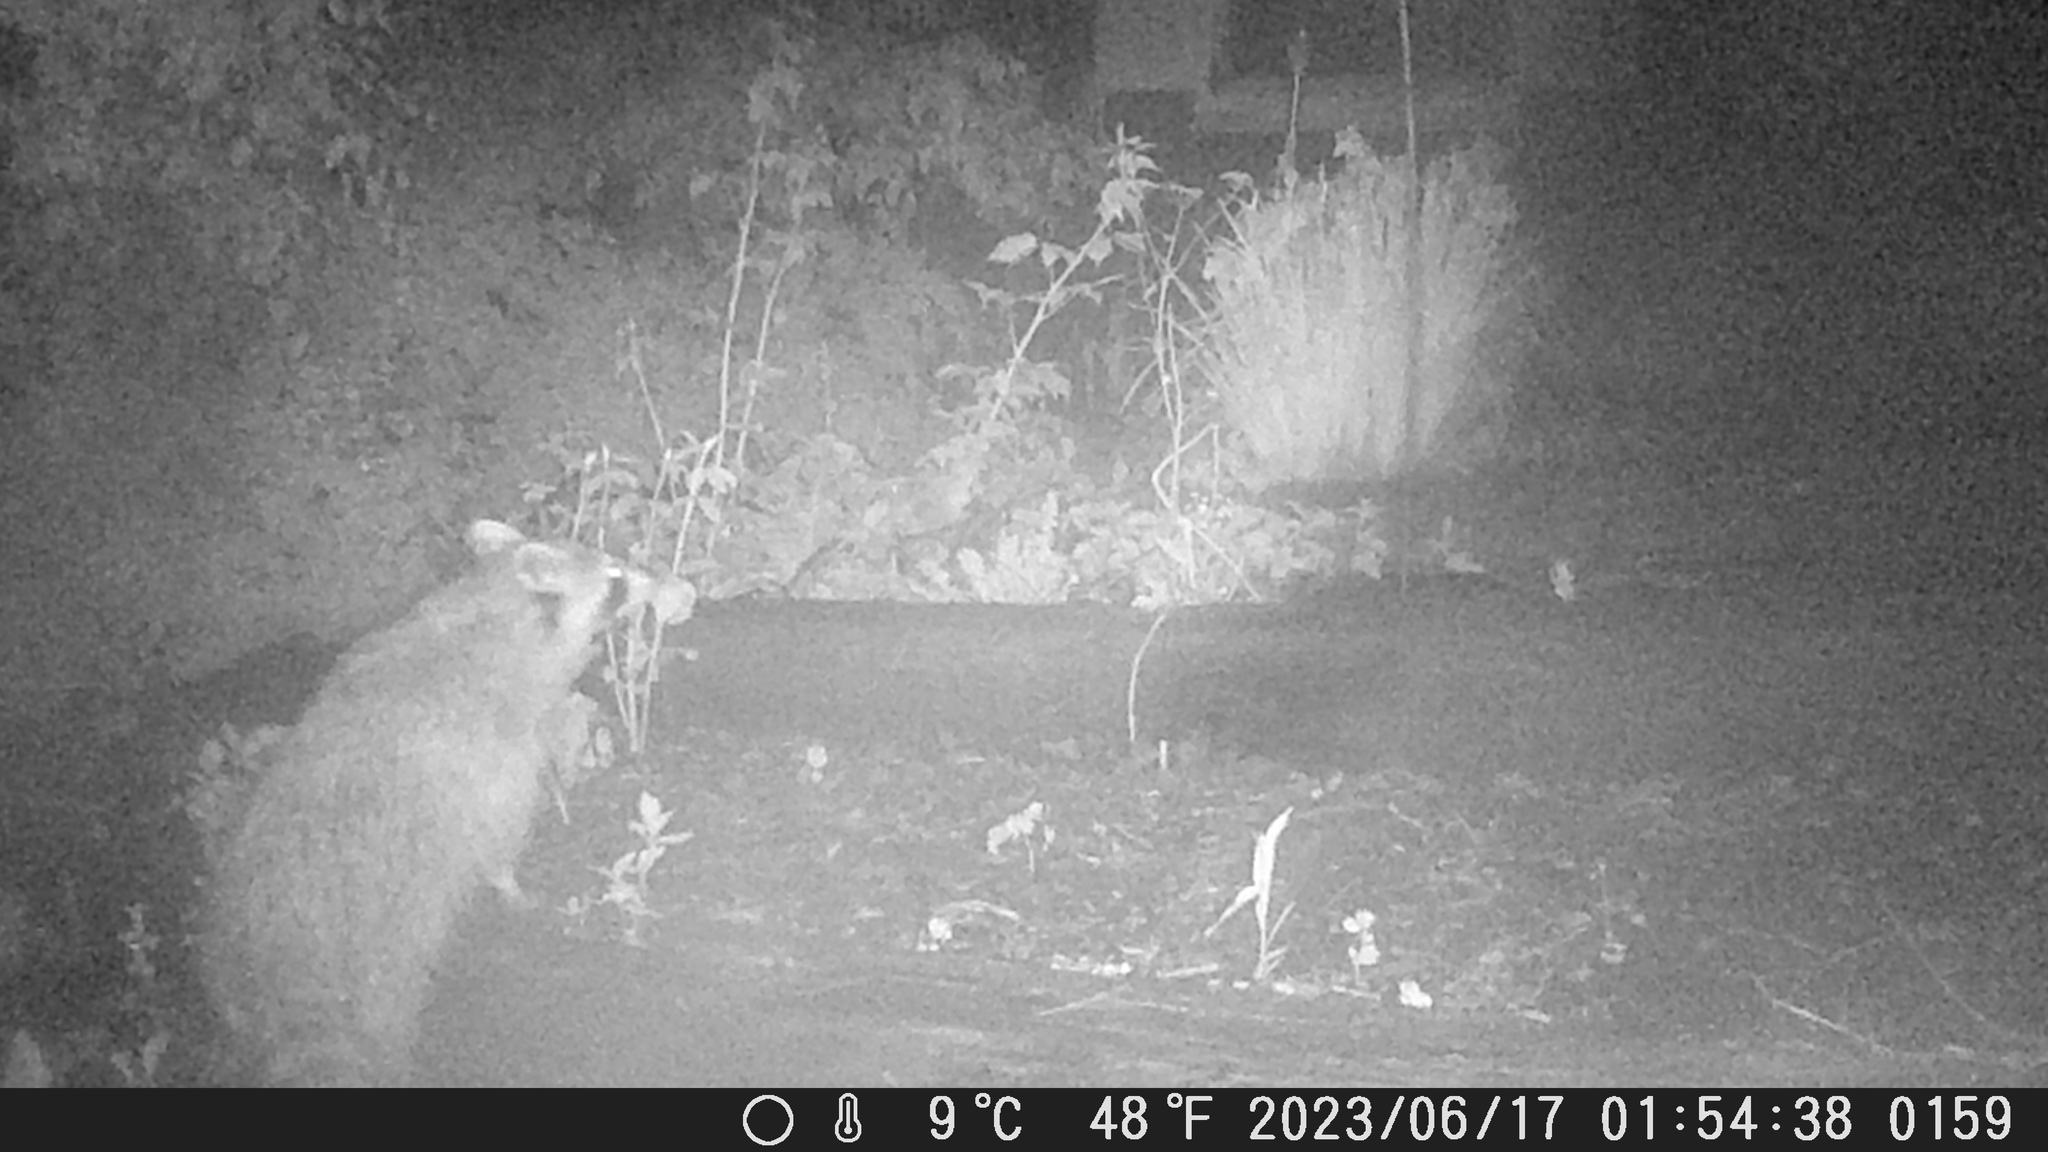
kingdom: Animalia
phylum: Chordata
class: Mammalia
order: Carnivora
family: Procyonidae
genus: Procyon
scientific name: Procyon lotor
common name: Raccoon
